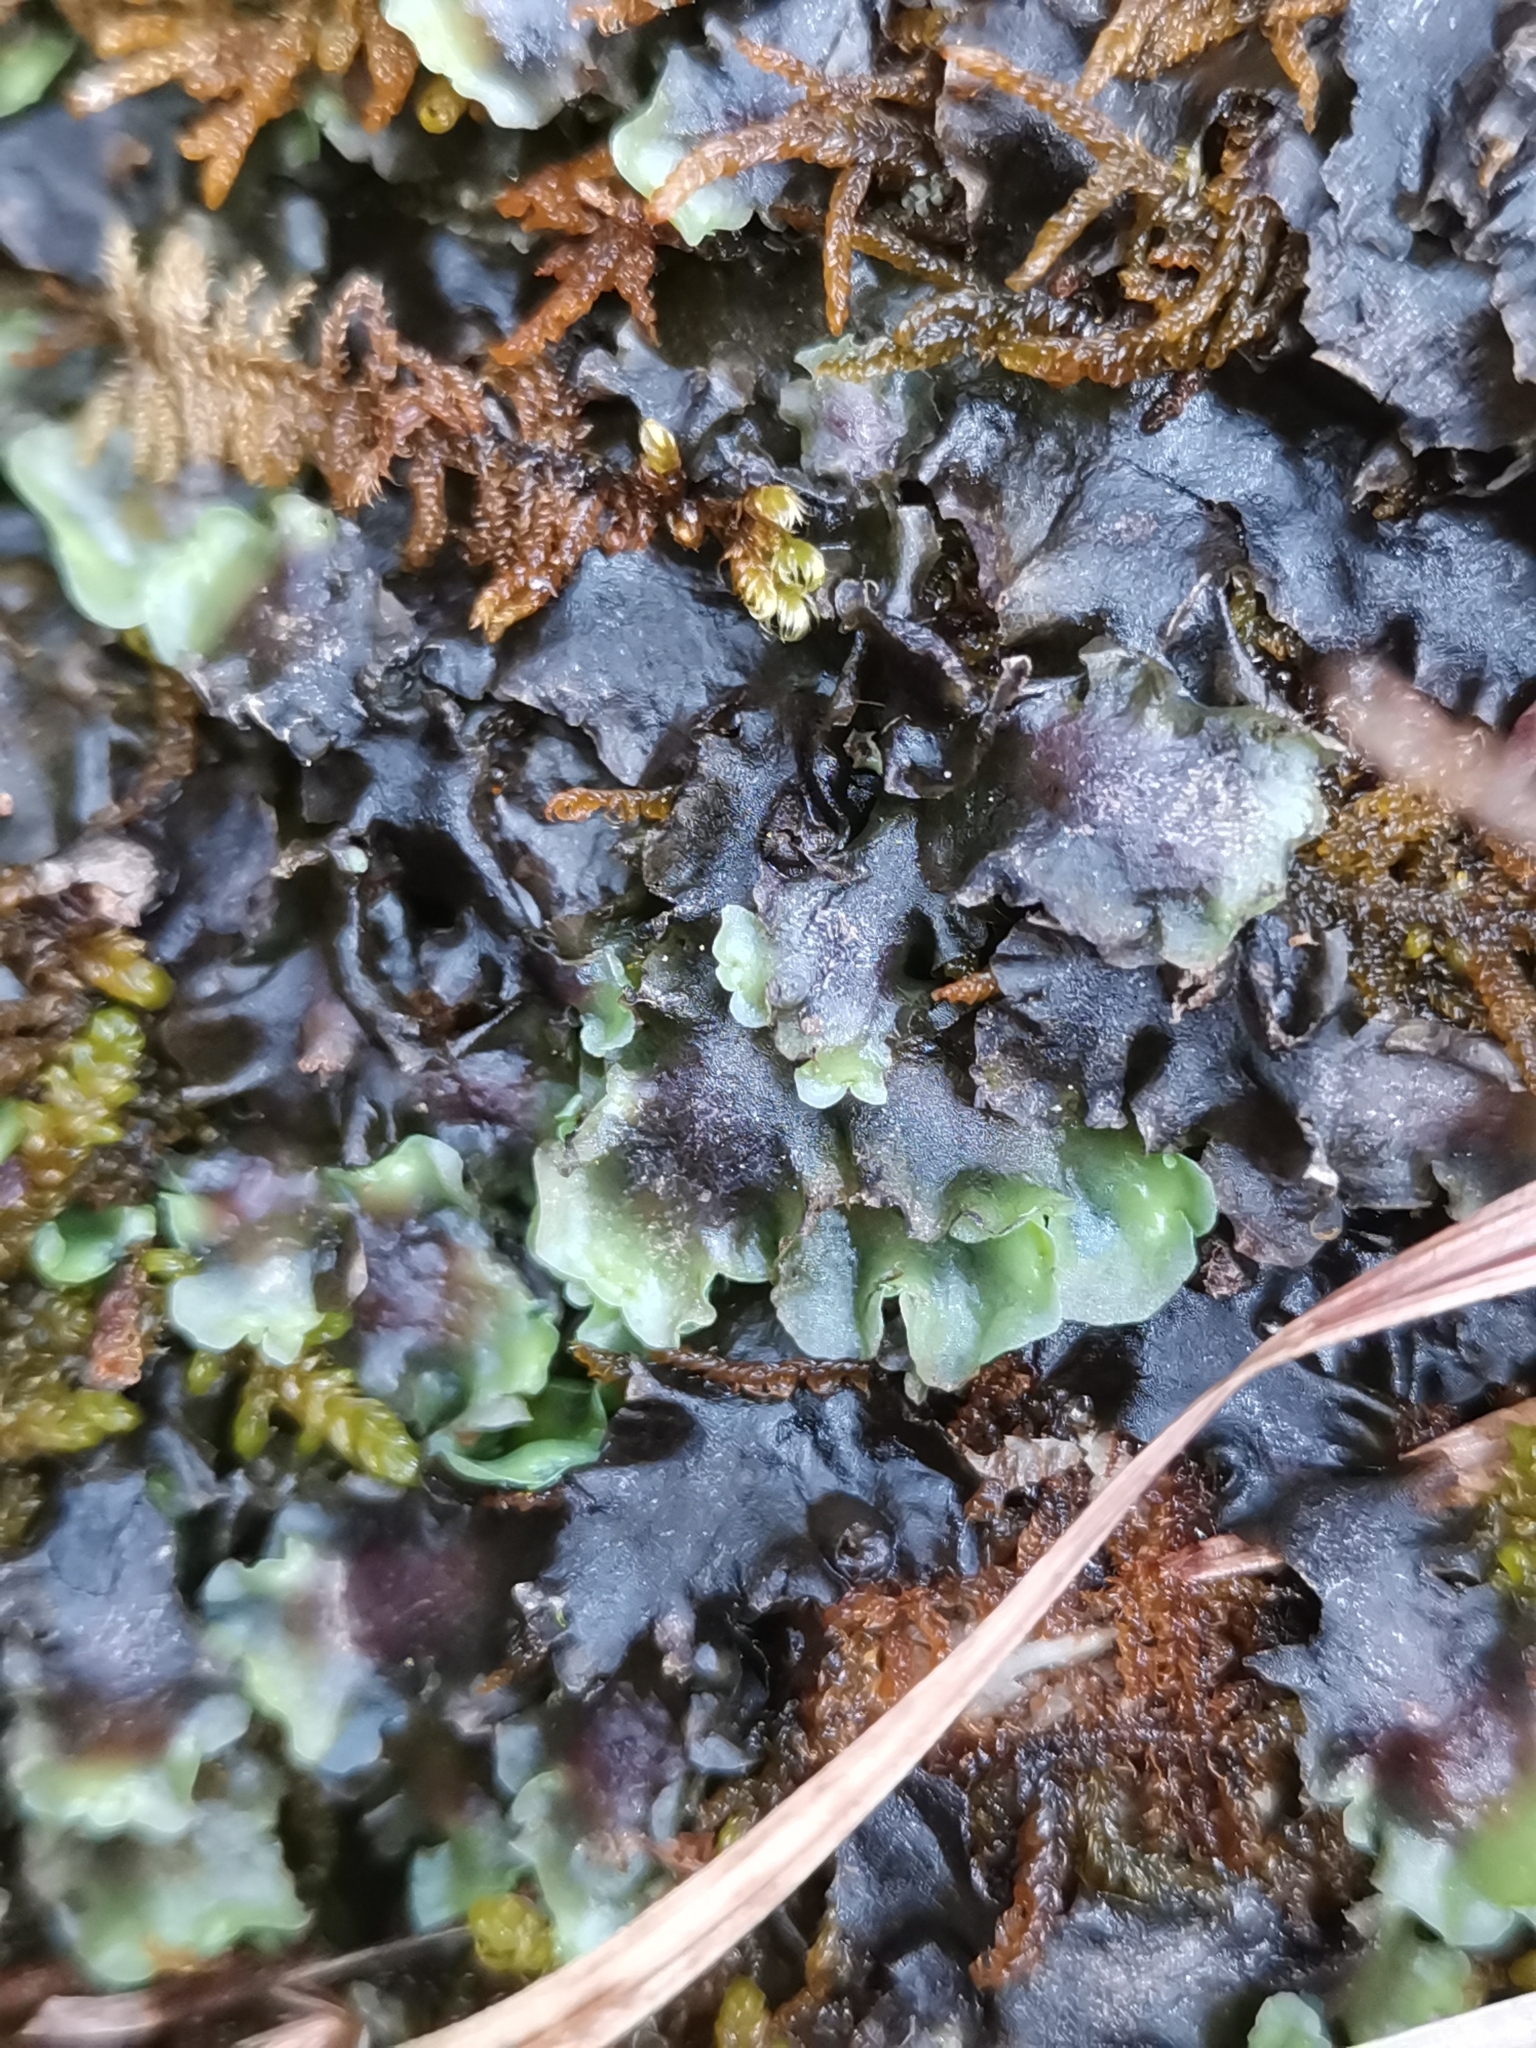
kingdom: Plantae
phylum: Marchantiophyta
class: Jungermanniopsida
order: Pelliales
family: Pelliaceae
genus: Apopellia
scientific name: Apopellia endiviifolia
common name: Endive pellia
